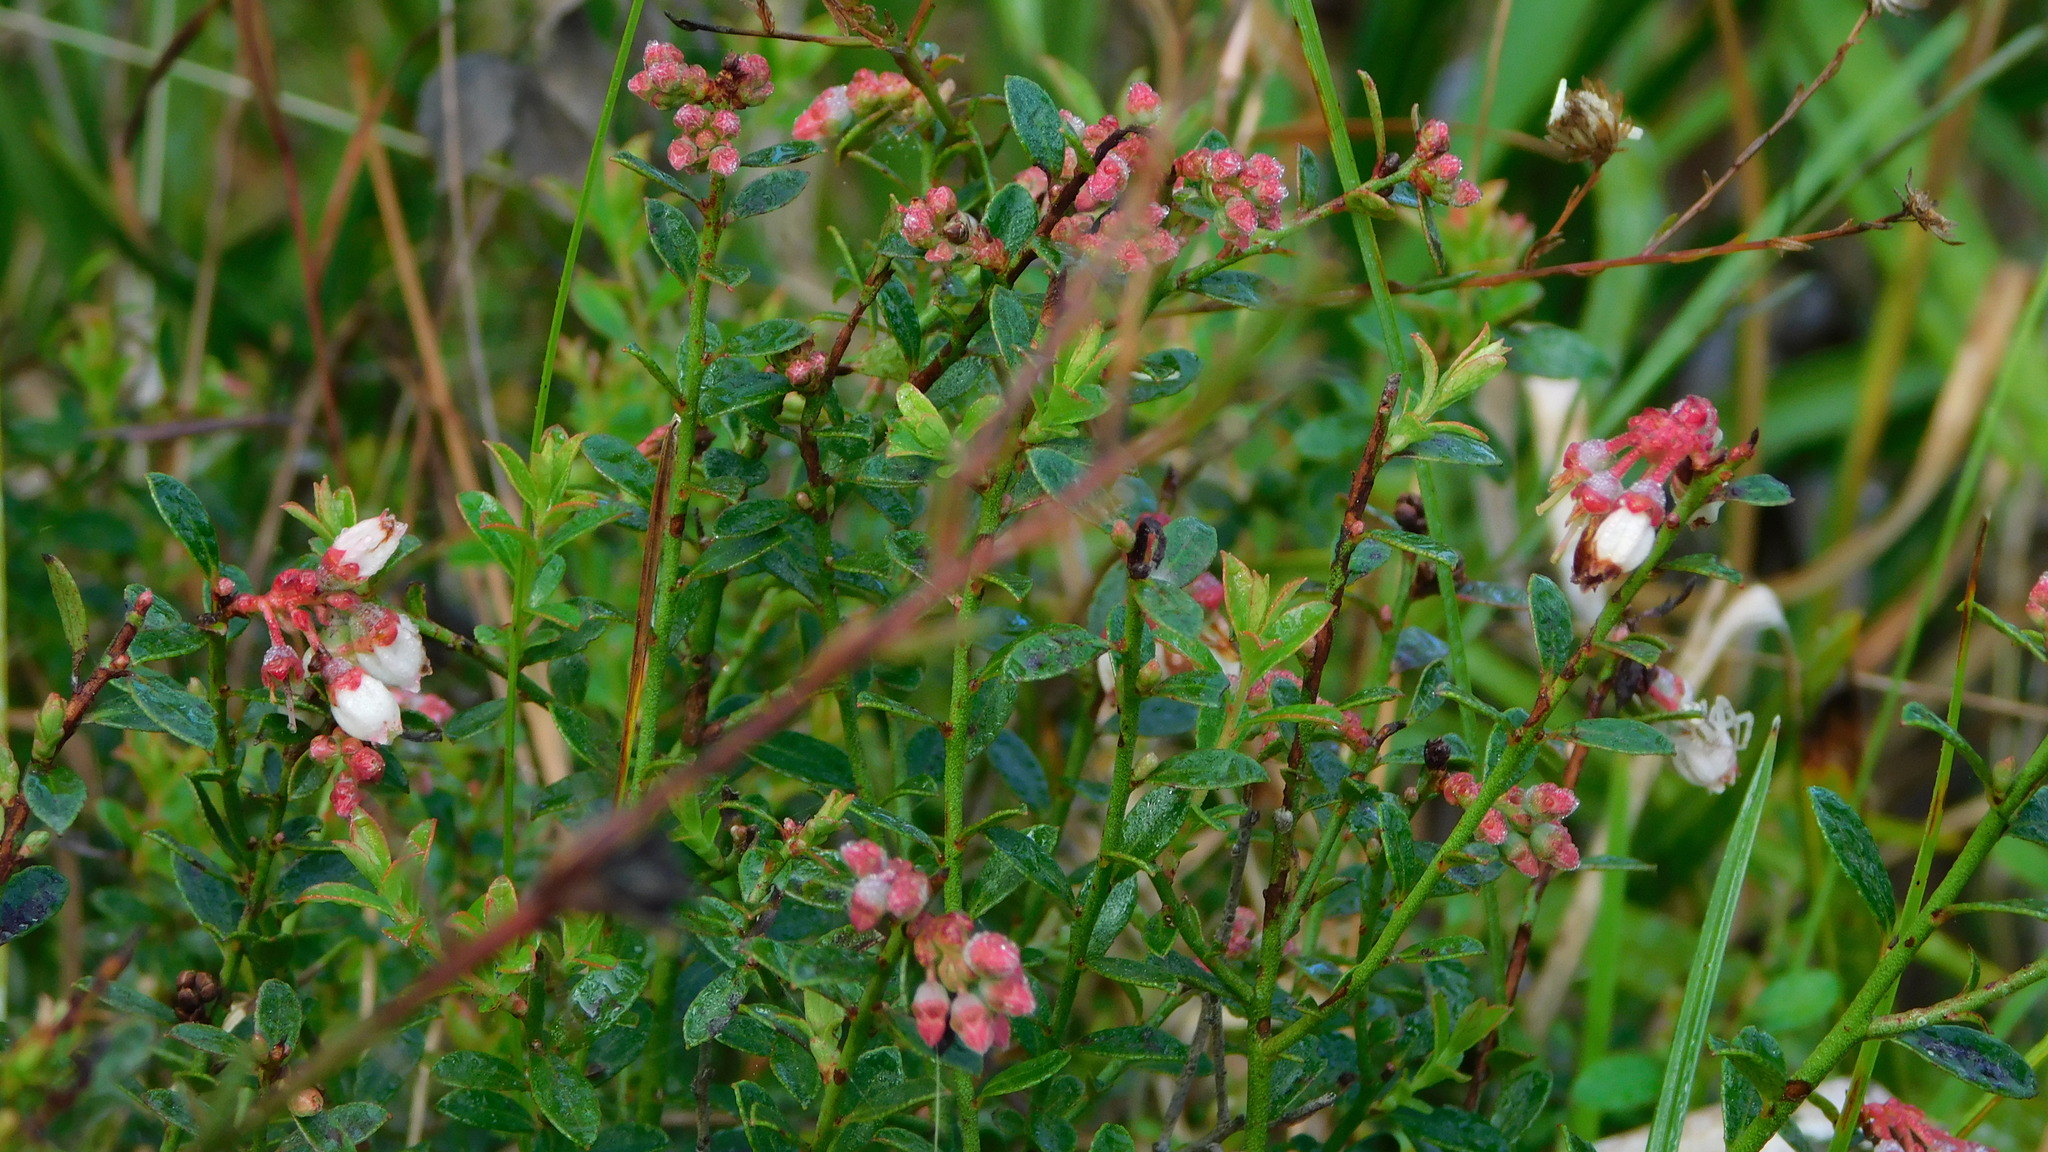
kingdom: Plantae
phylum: Tracheophyta
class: Magnoliopsida
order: Ericales
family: Ericaceae
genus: Vaccinium
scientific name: Vaccinium myrsinites
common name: Evergreen blueberry
